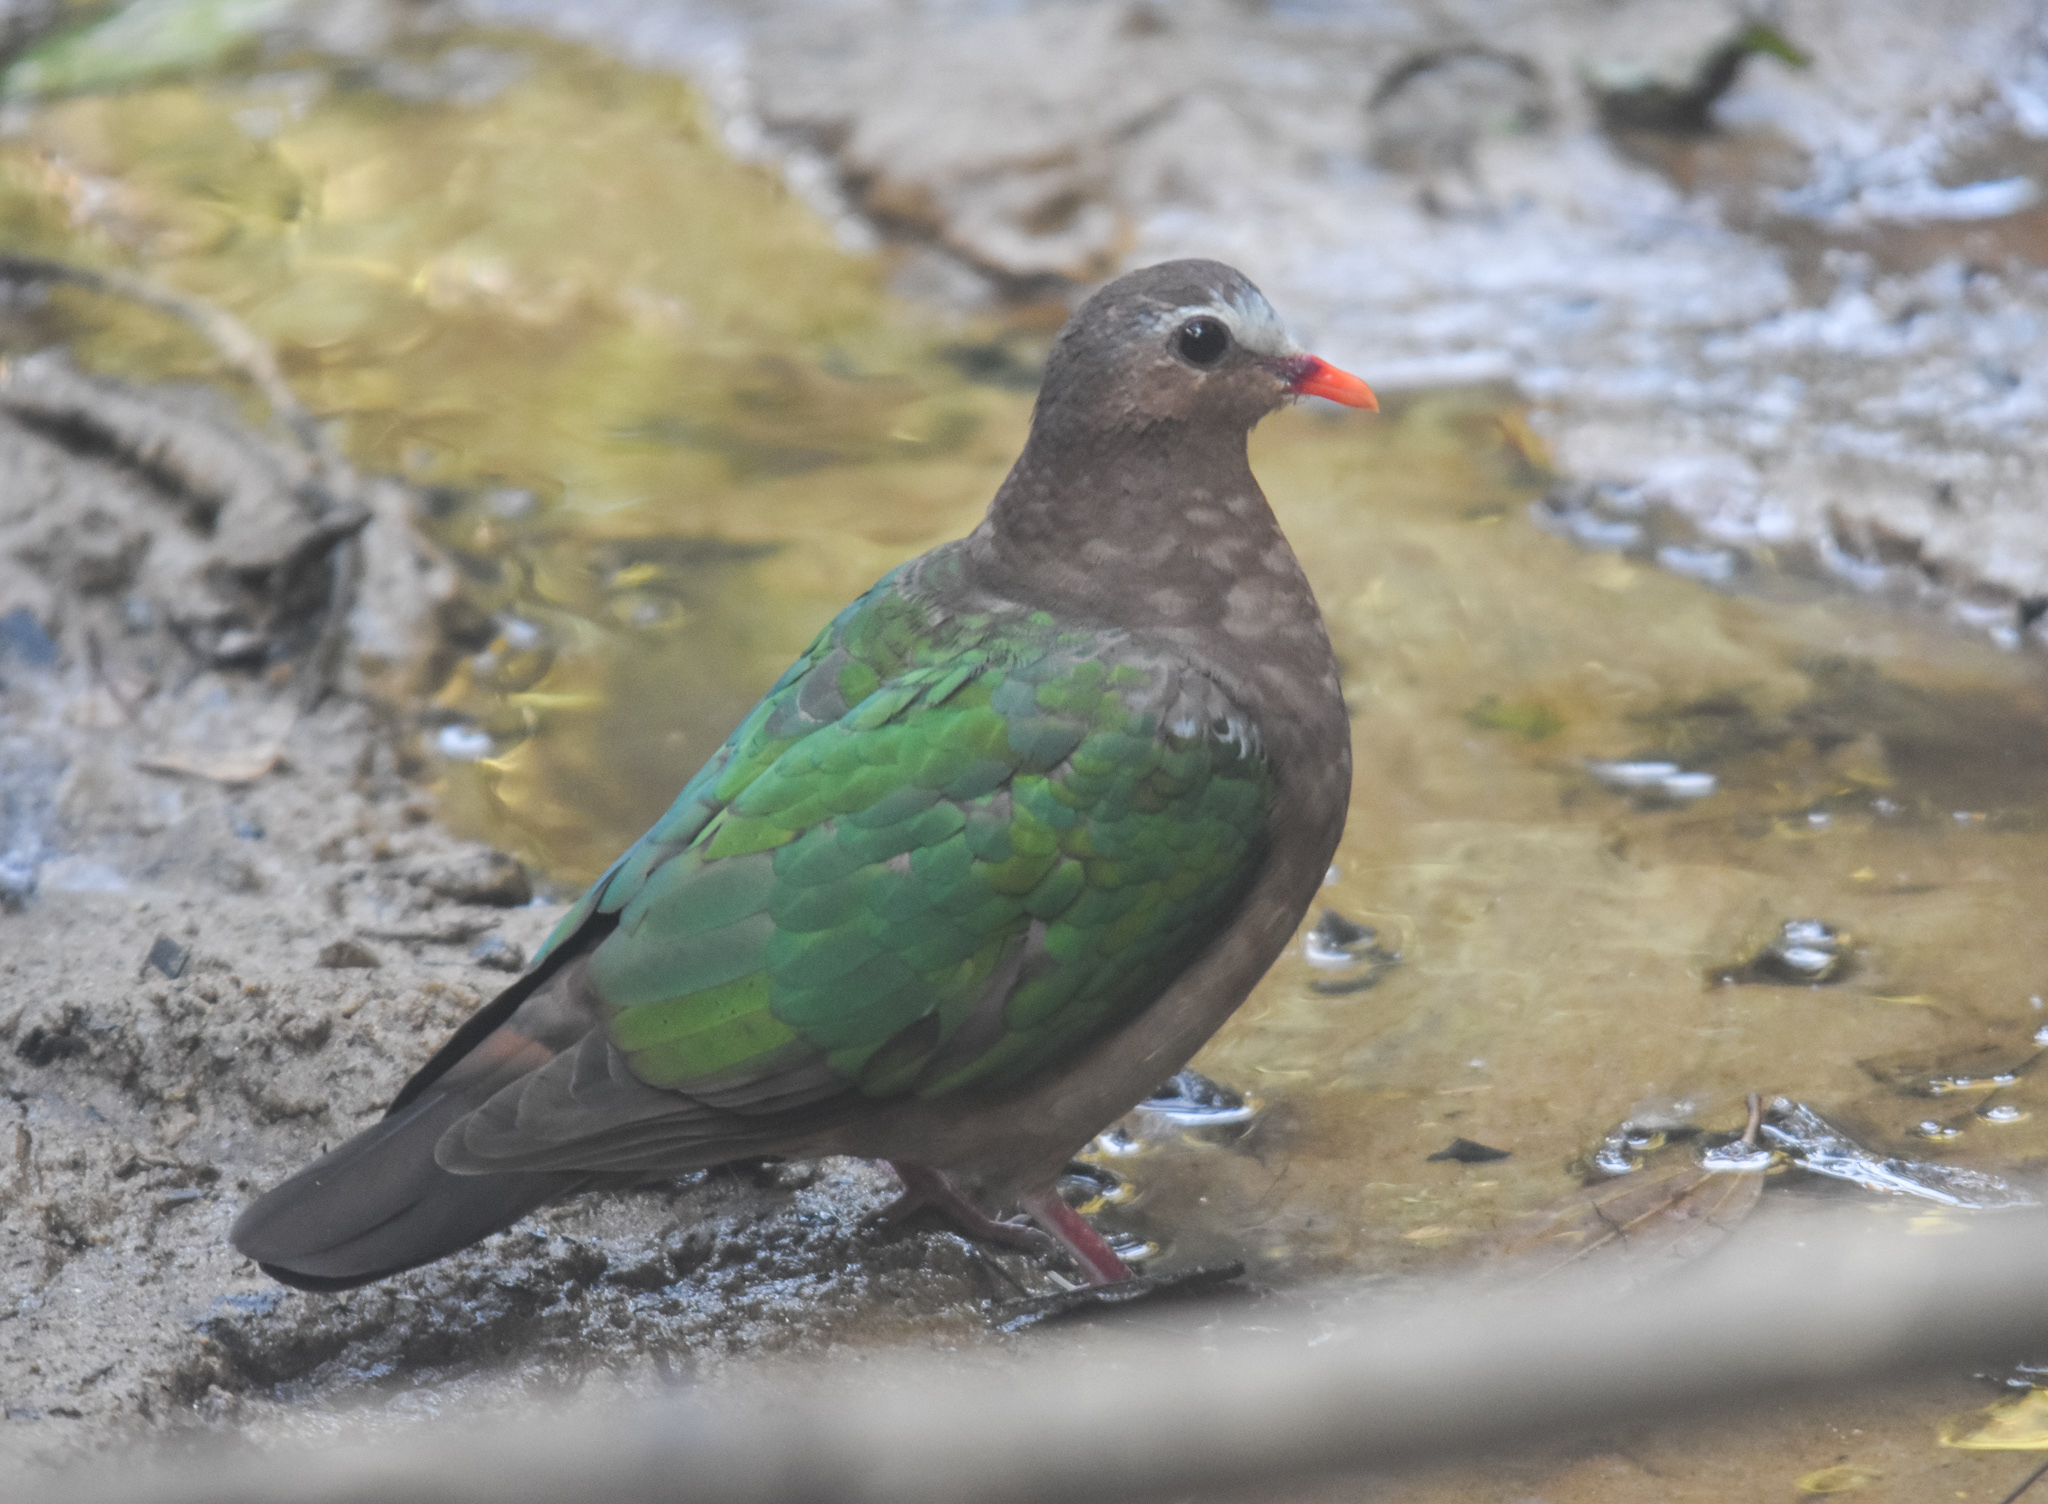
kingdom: Animalia
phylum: Chordata
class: Aves
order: Columbiformes
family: Columbidae
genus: Chalcophaps
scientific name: Chalcophaps indica
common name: Common emerald dove
